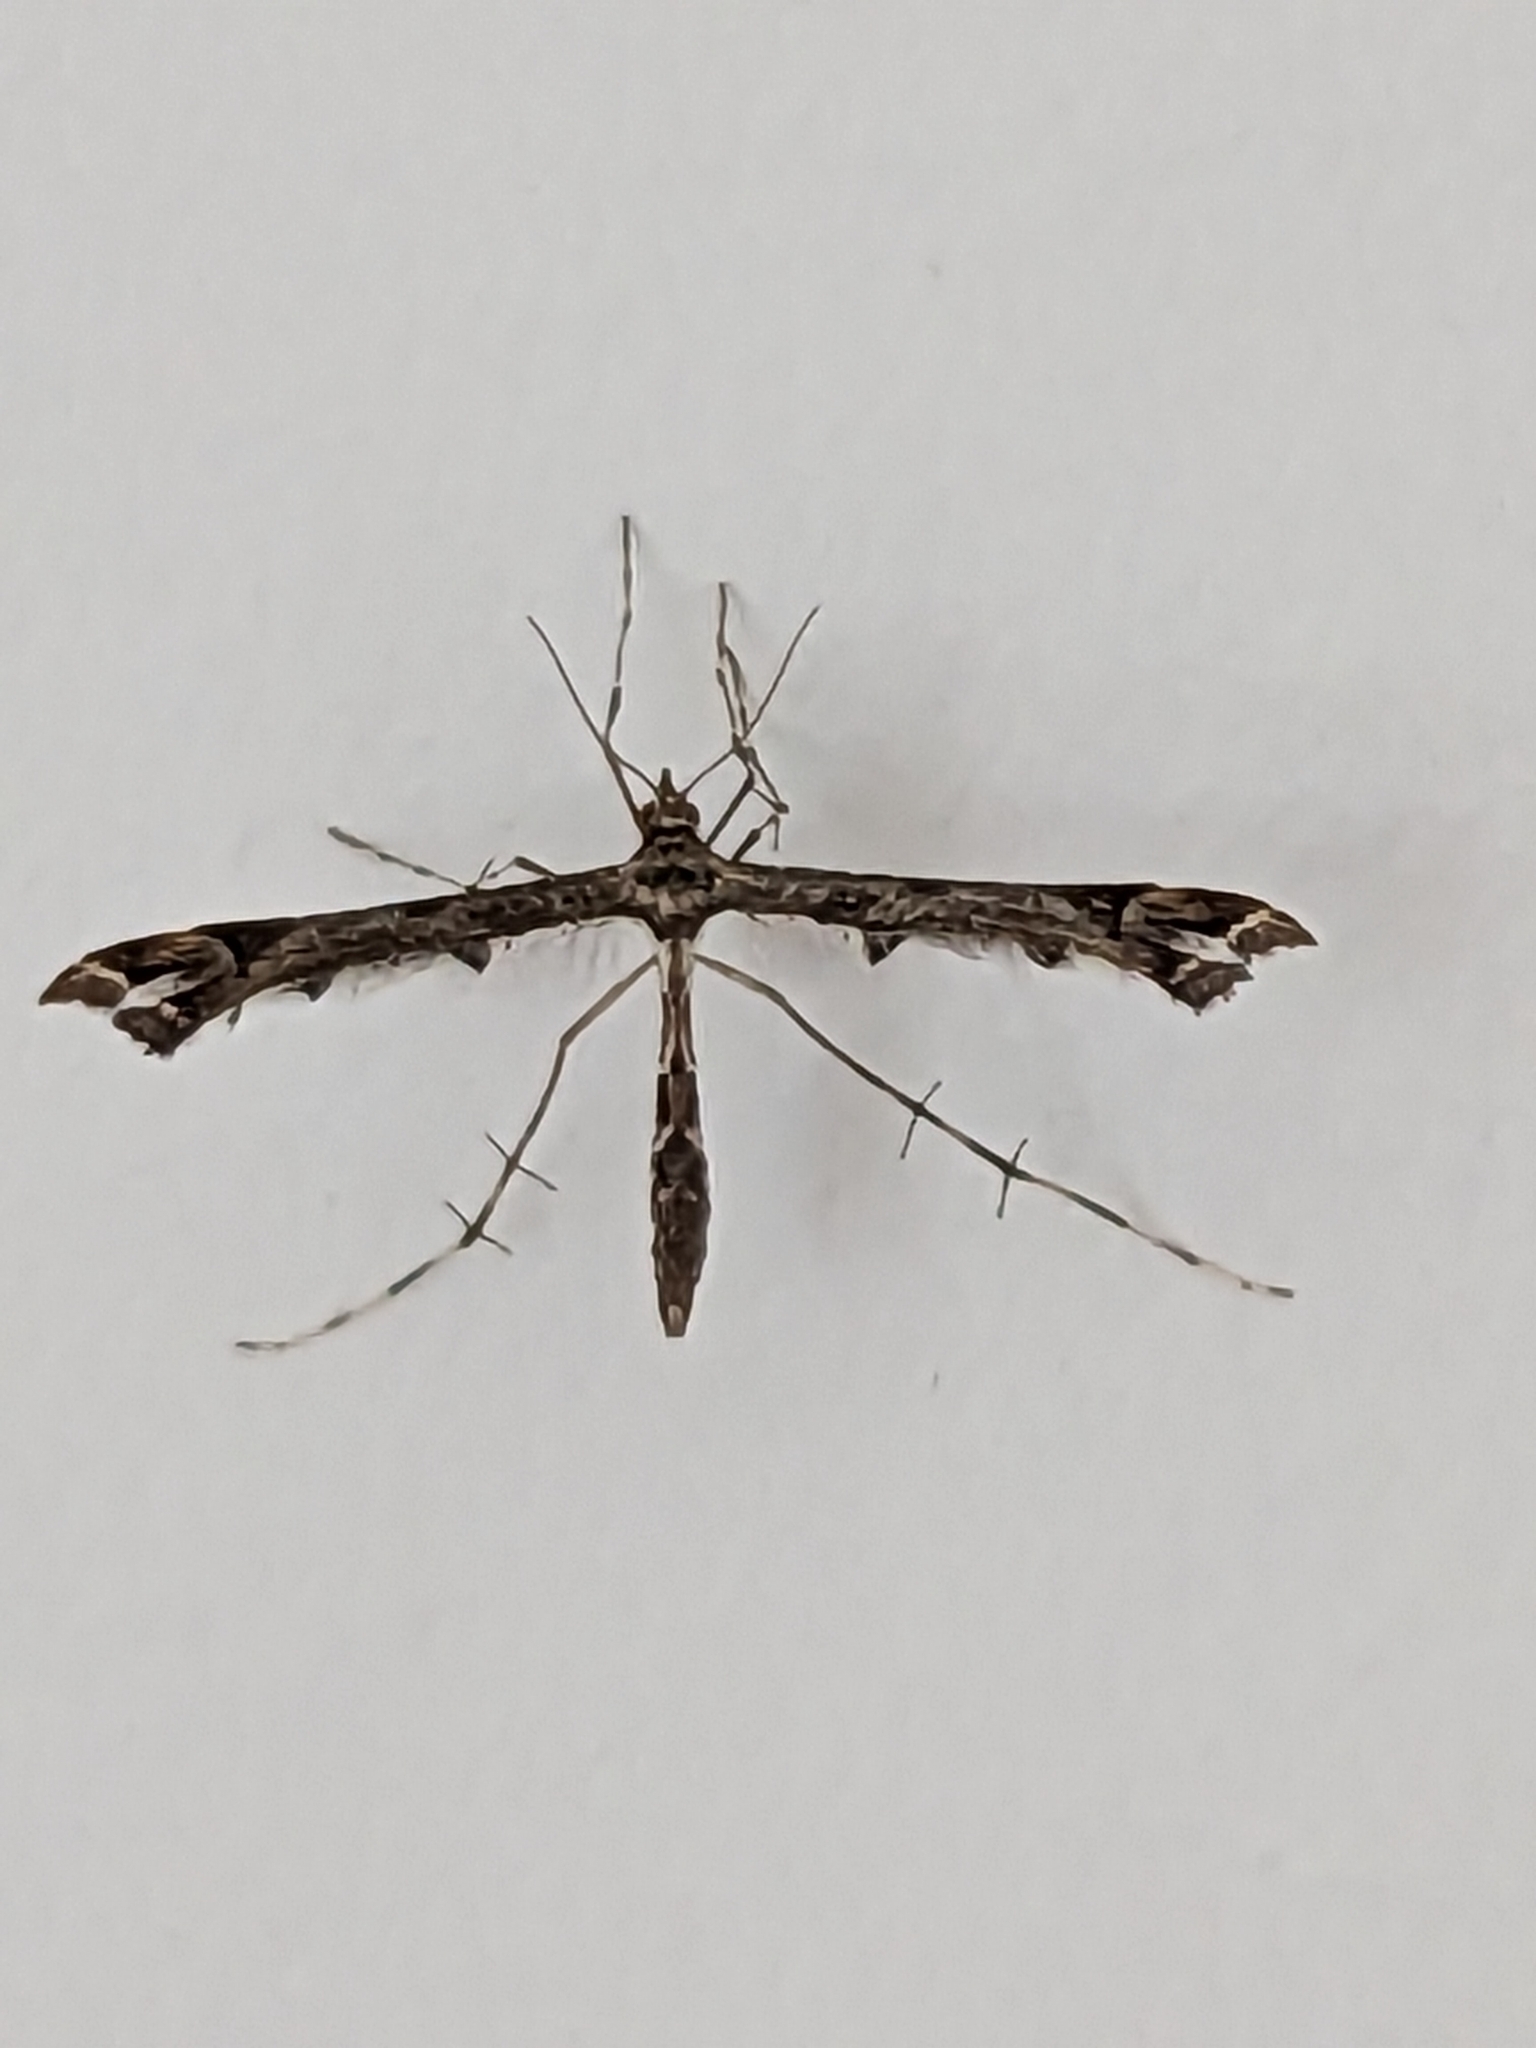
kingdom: Animalia
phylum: Arthropoda
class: Insecta
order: Lepidoptera
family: Pterophoridae
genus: Amblyptilia
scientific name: Amblyptilia acanthadactyla
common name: Beautiful plume
